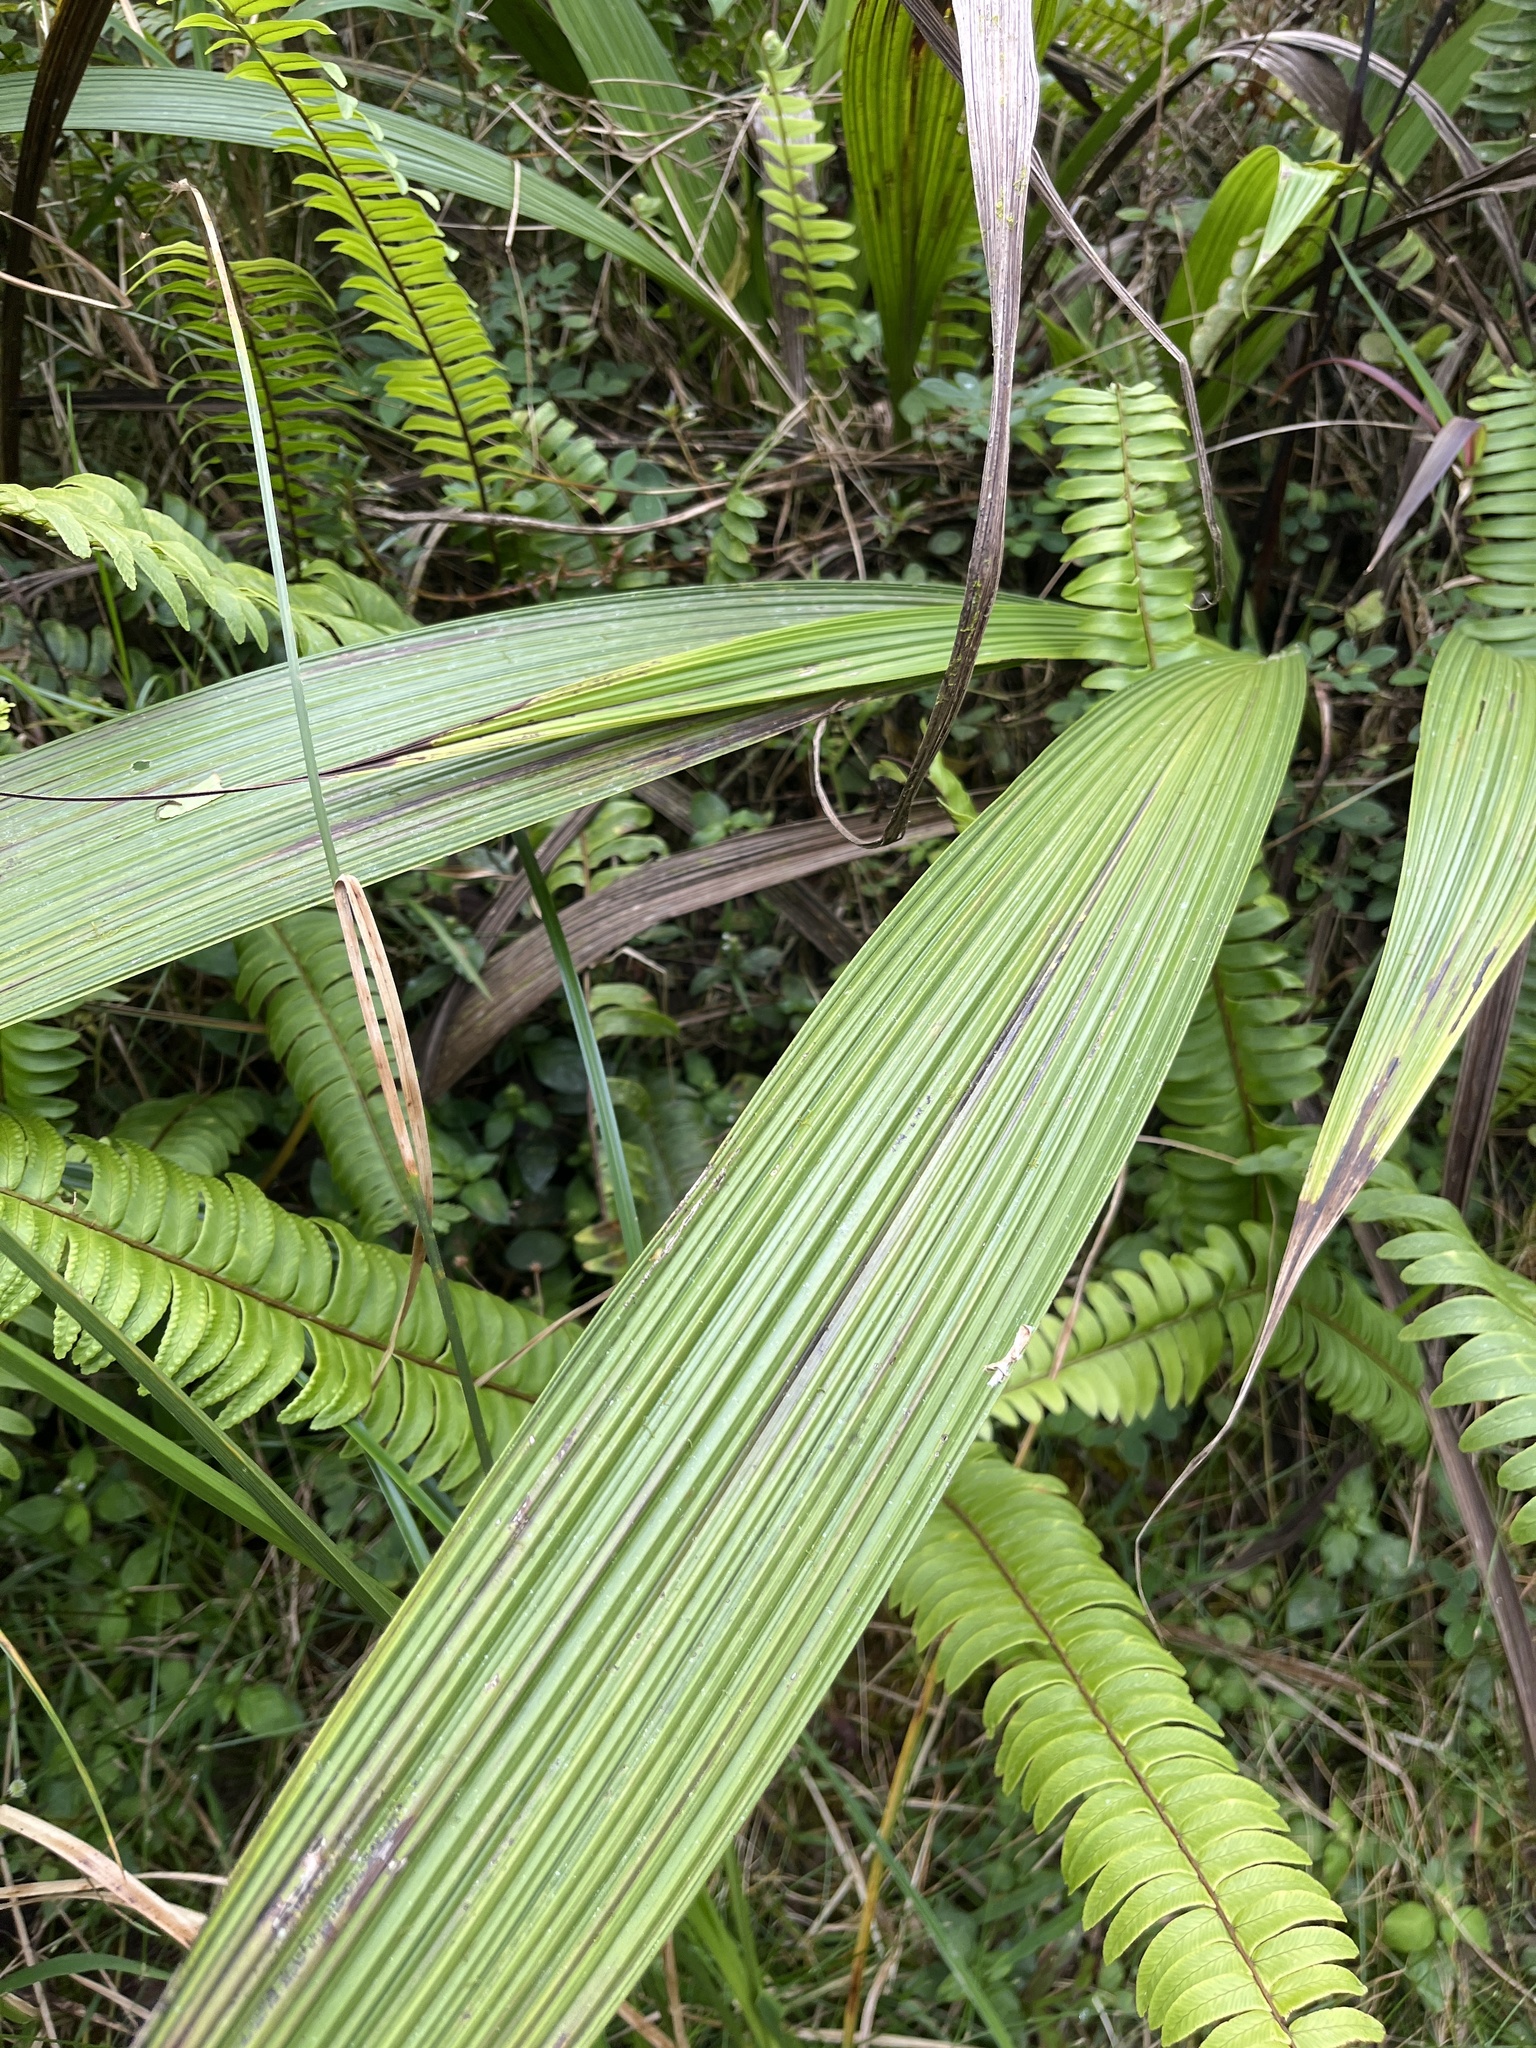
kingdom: Plantae
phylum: Tracheophyta
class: Liliopsida
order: Asparagales
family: Orchidaceae
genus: Spathoglottis
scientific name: Spathoglottis plicata
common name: Philippine ground orchid
